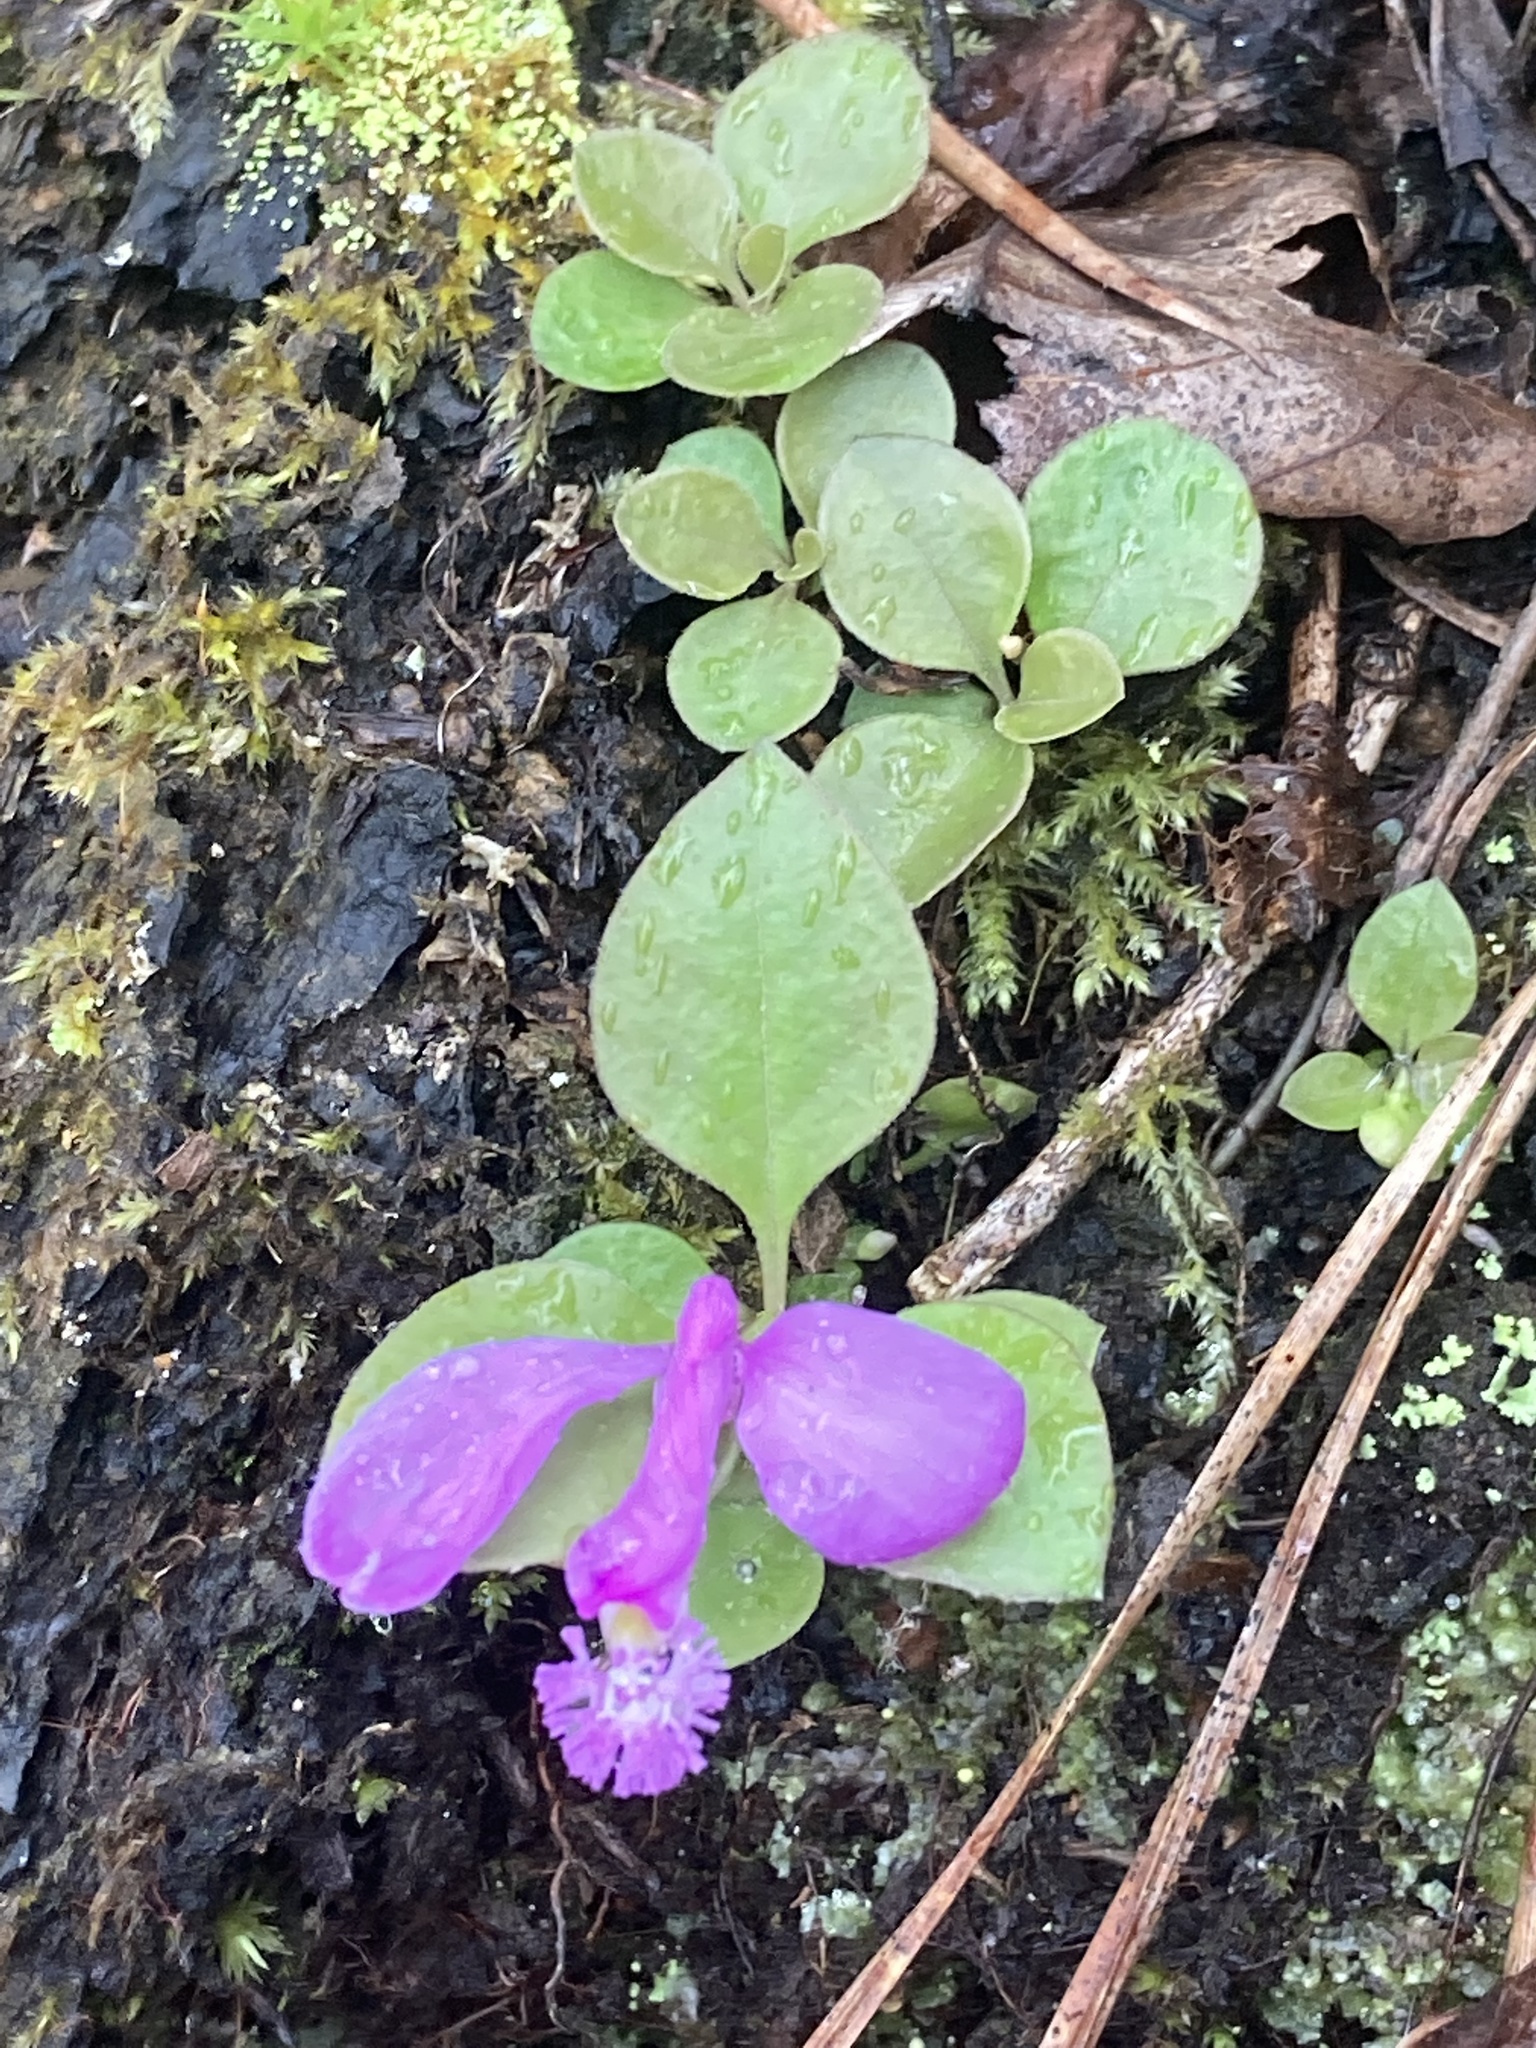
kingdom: Plantae
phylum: Tracheophyta
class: Magnoliopsida
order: Fabales
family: Polygalaceae
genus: Polygaloides
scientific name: Polygaloides paucifolia
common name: Bird-on-the-wing
